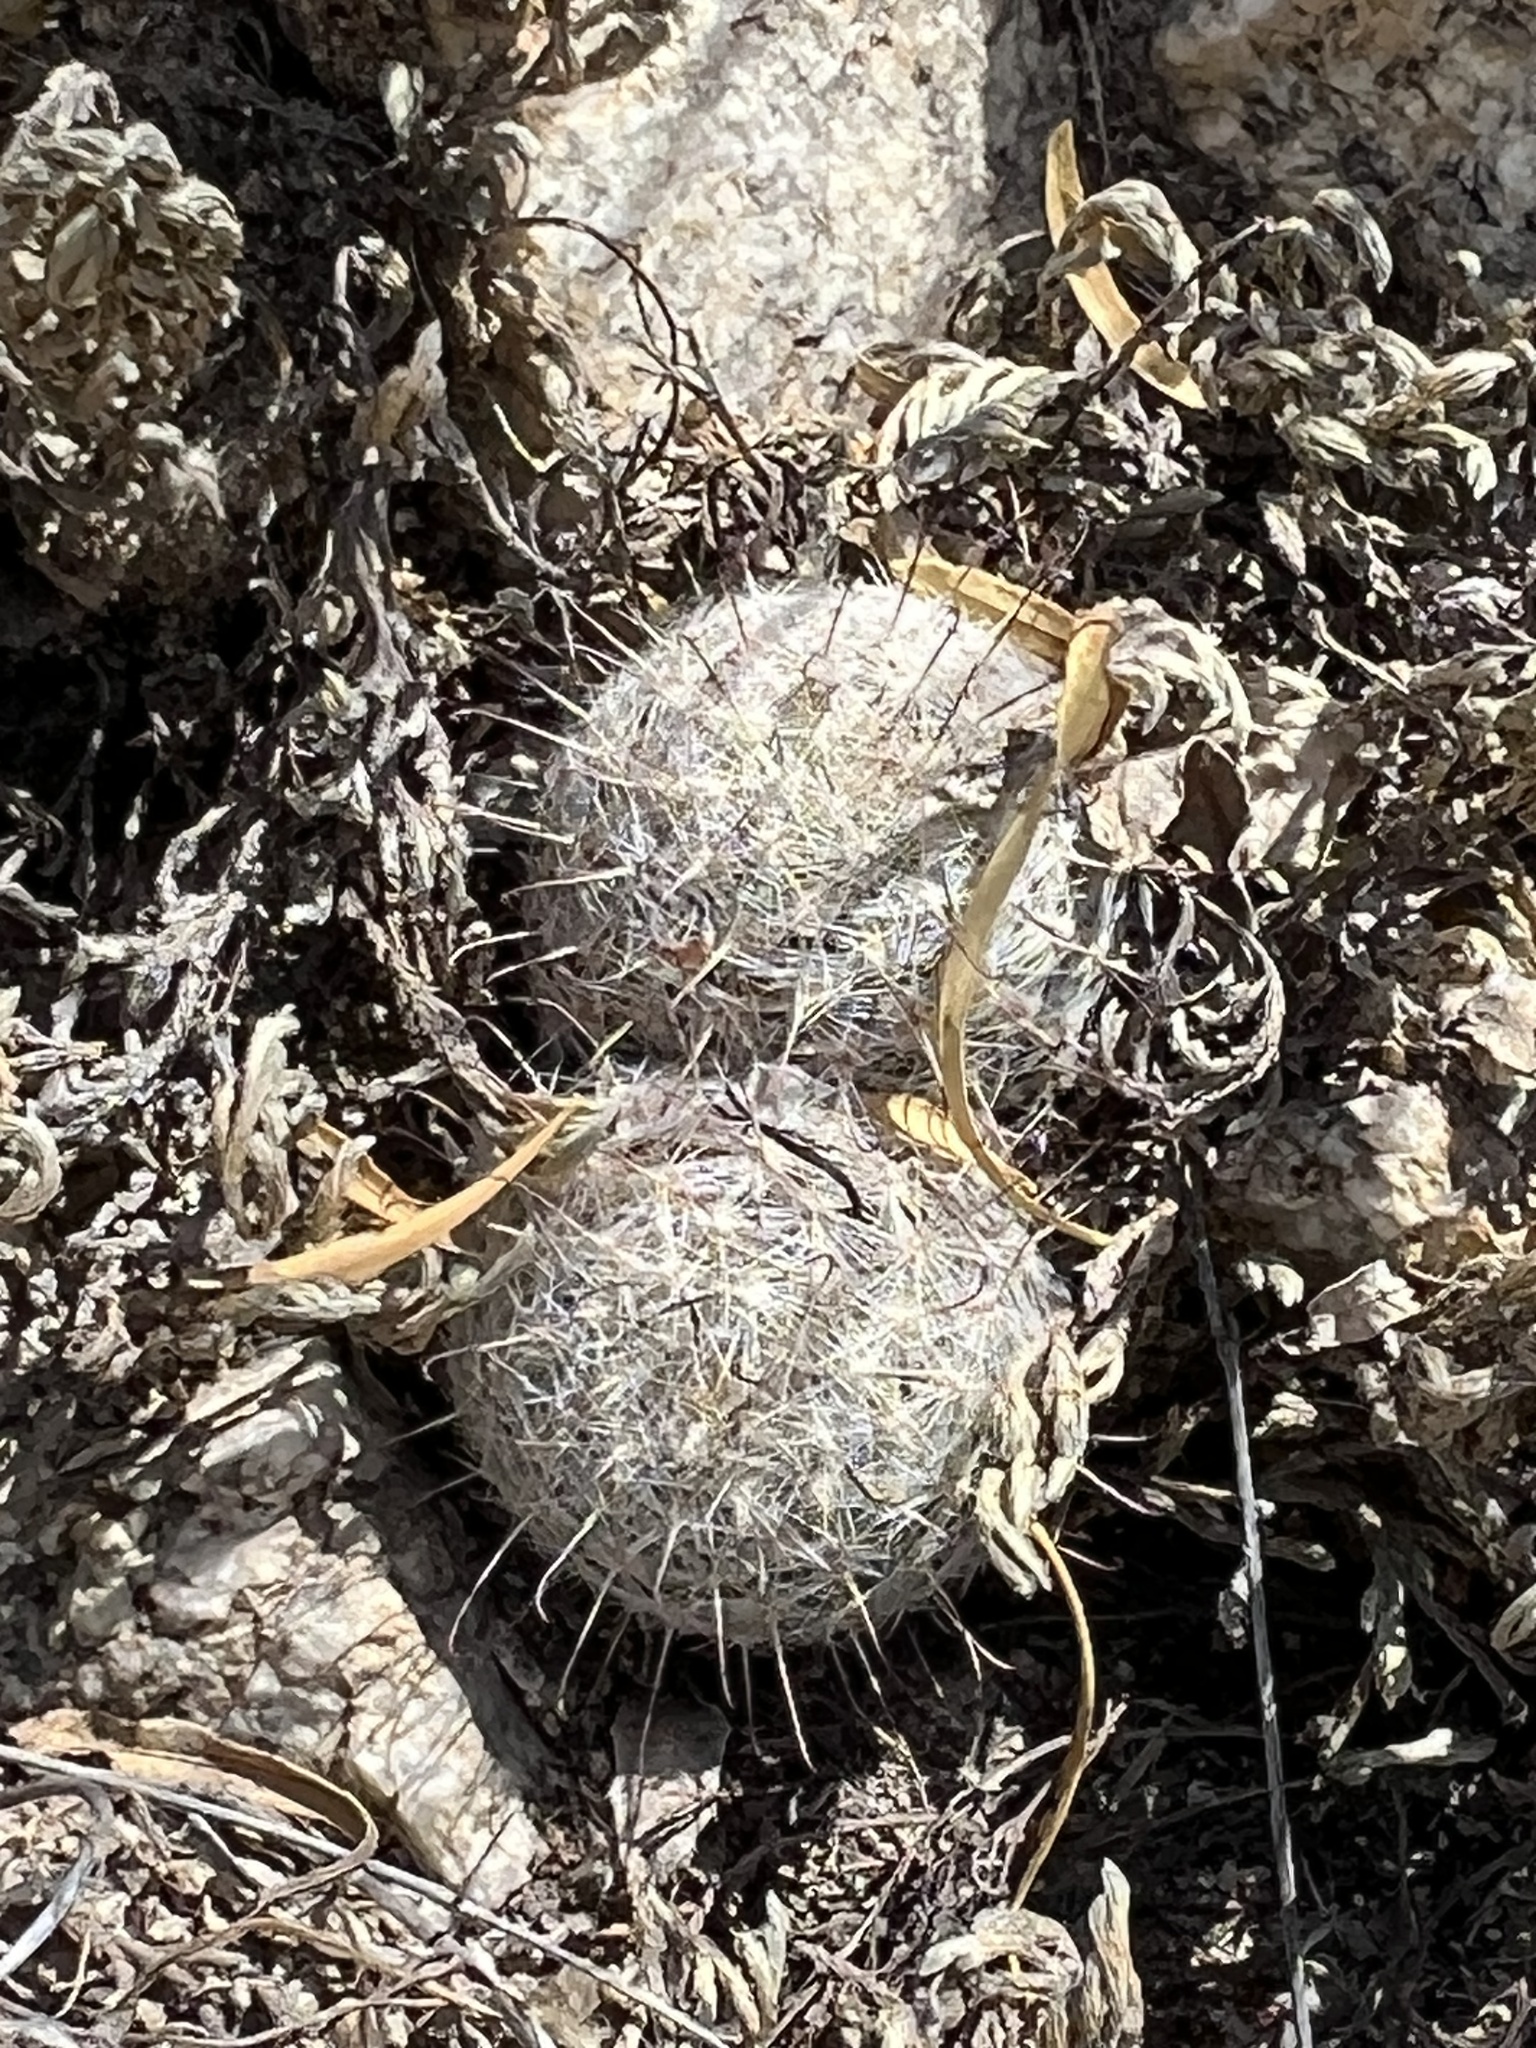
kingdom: Plantae
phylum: Tracheophyta
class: Magnoliopsida
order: Caryophyllales
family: Cactaceae
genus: Cochemiea
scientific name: Cochemiea grahamii
